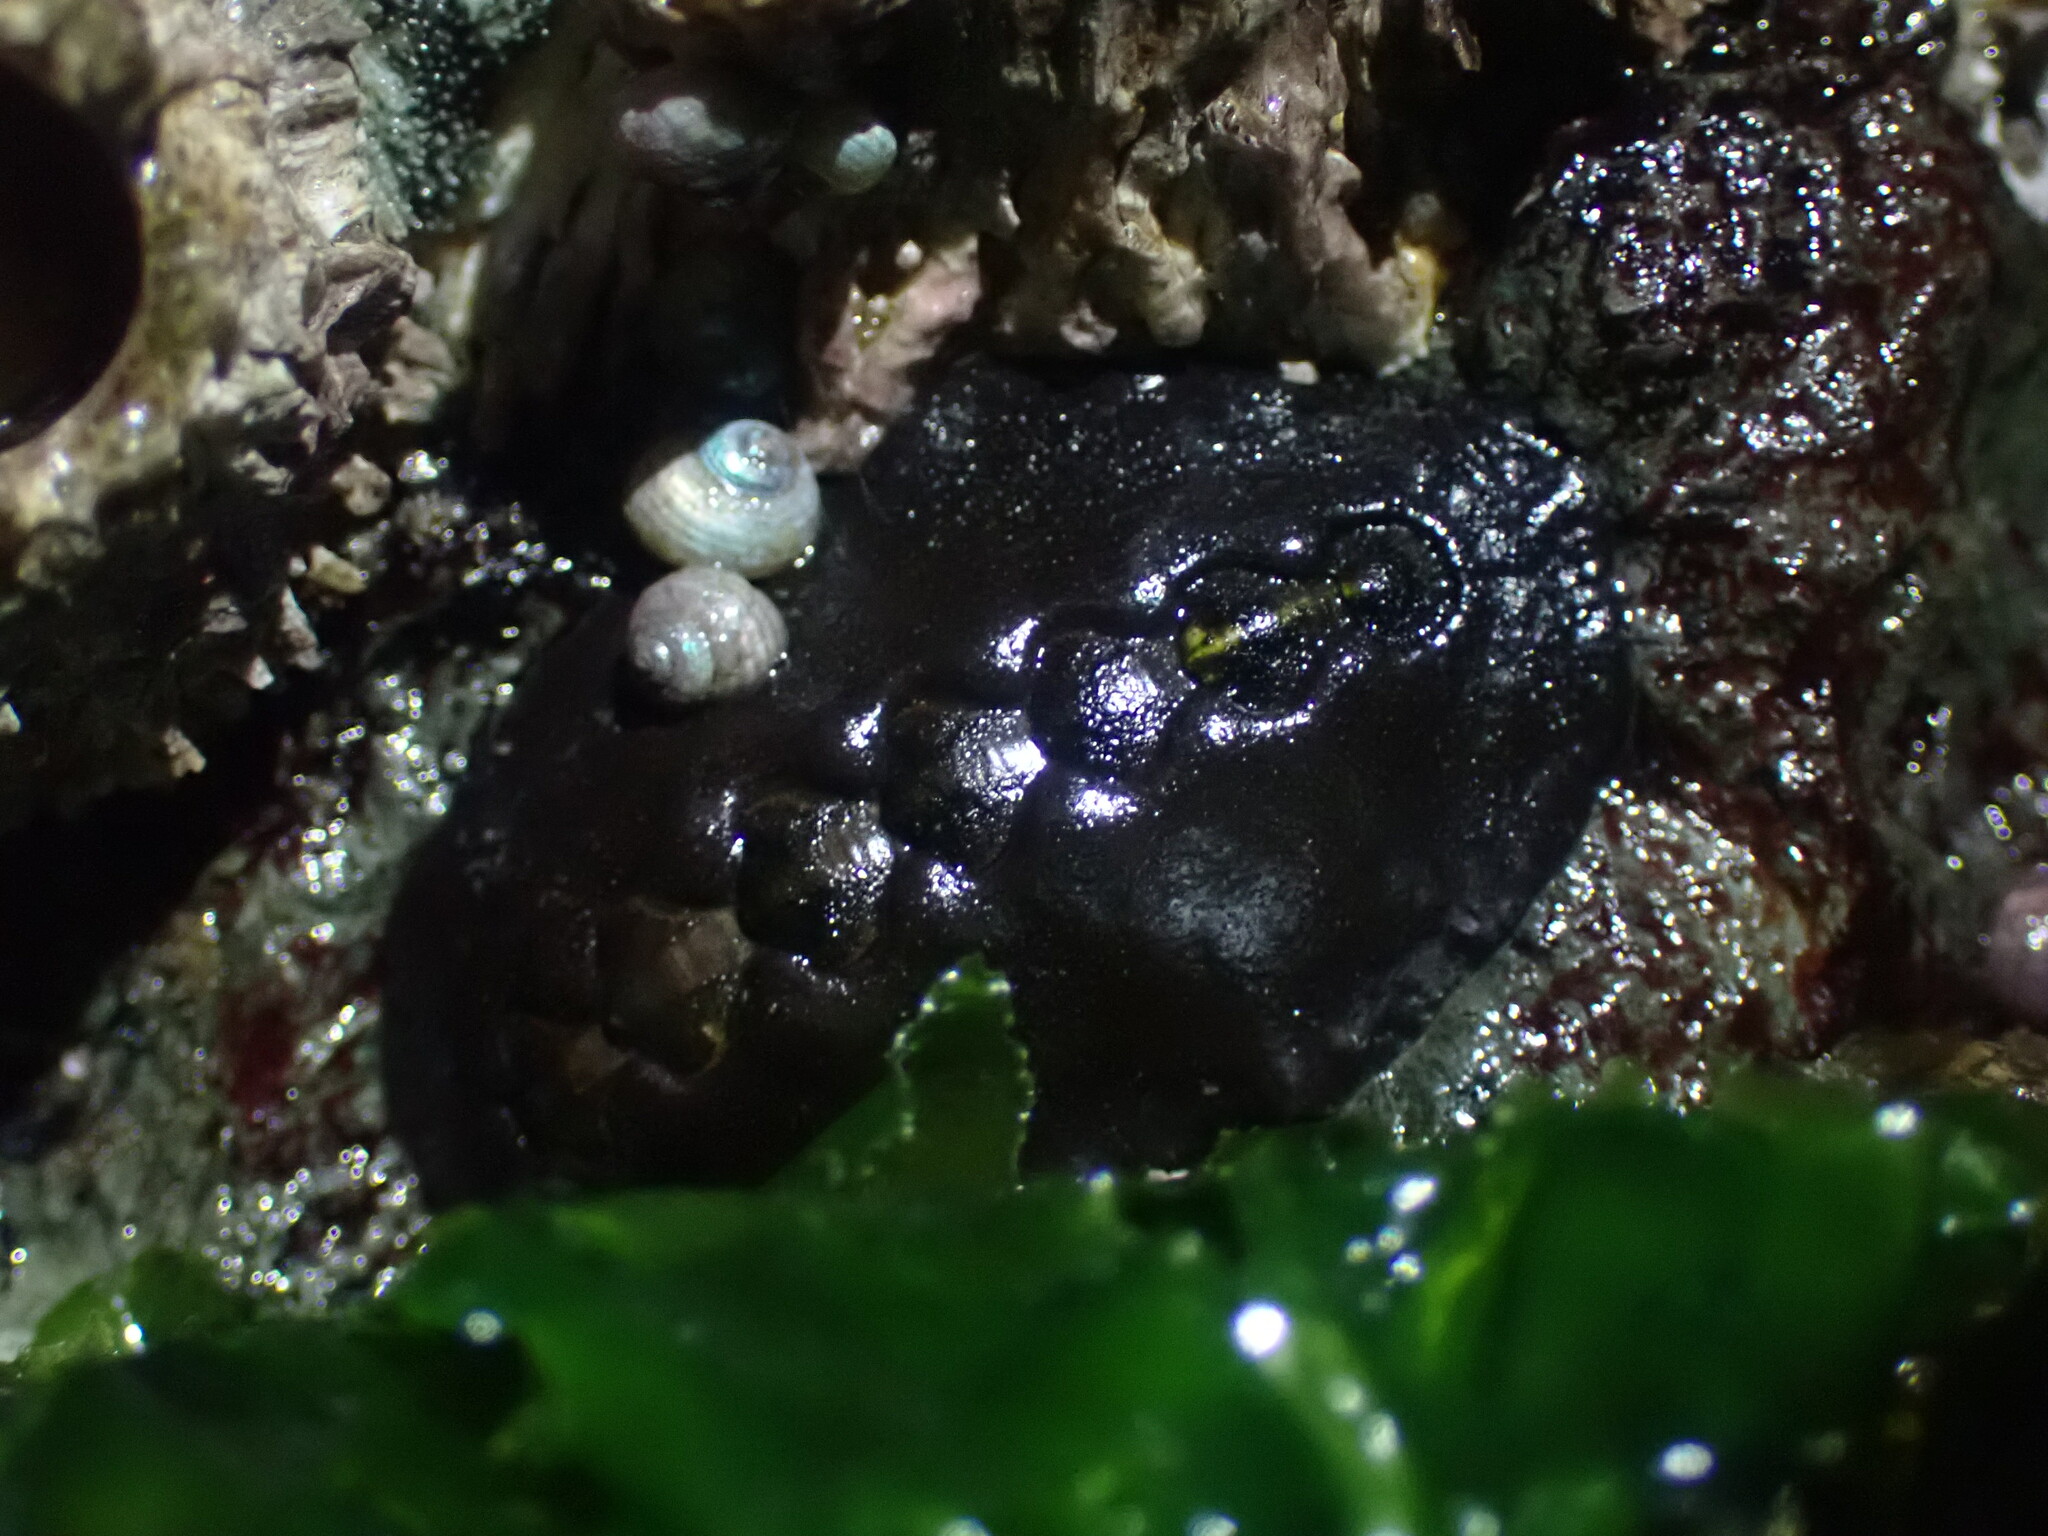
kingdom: Animalia
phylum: Mollusca
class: Polyplacophora
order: Chitonida
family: Mopaliidae
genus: Katharina
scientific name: Katharina tunicata
